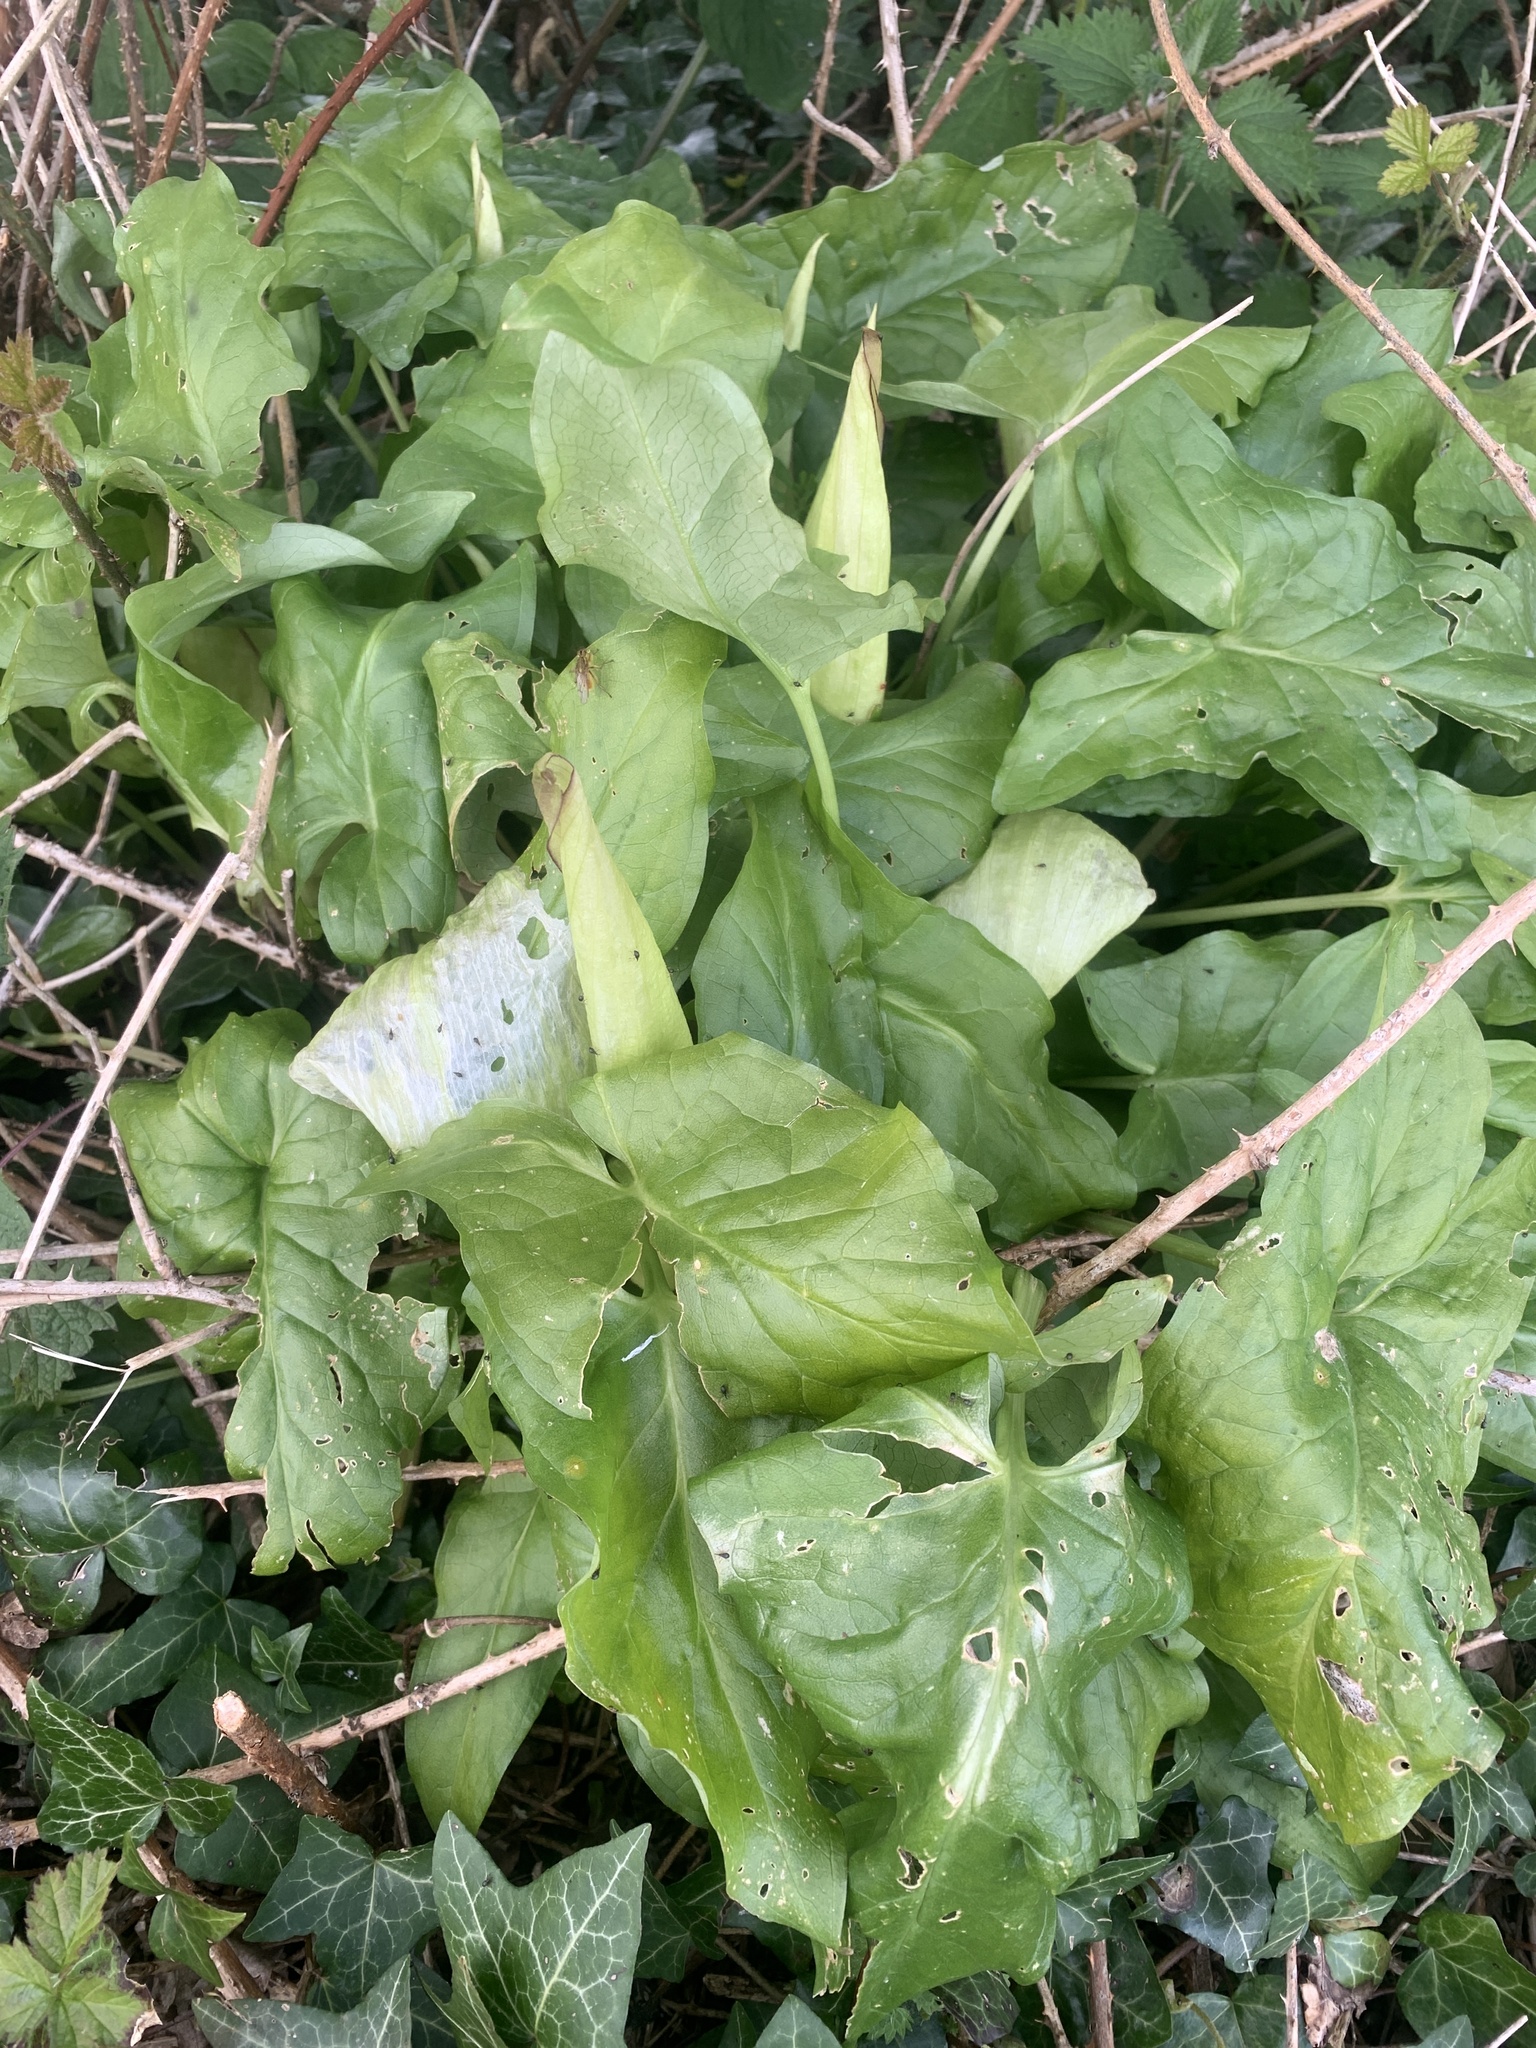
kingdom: Plantae
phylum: Tracheophyta
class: Liliopsida
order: Alismatales
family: Araceae
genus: Arum
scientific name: Arum maculatum
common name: Lords-and-ladies
